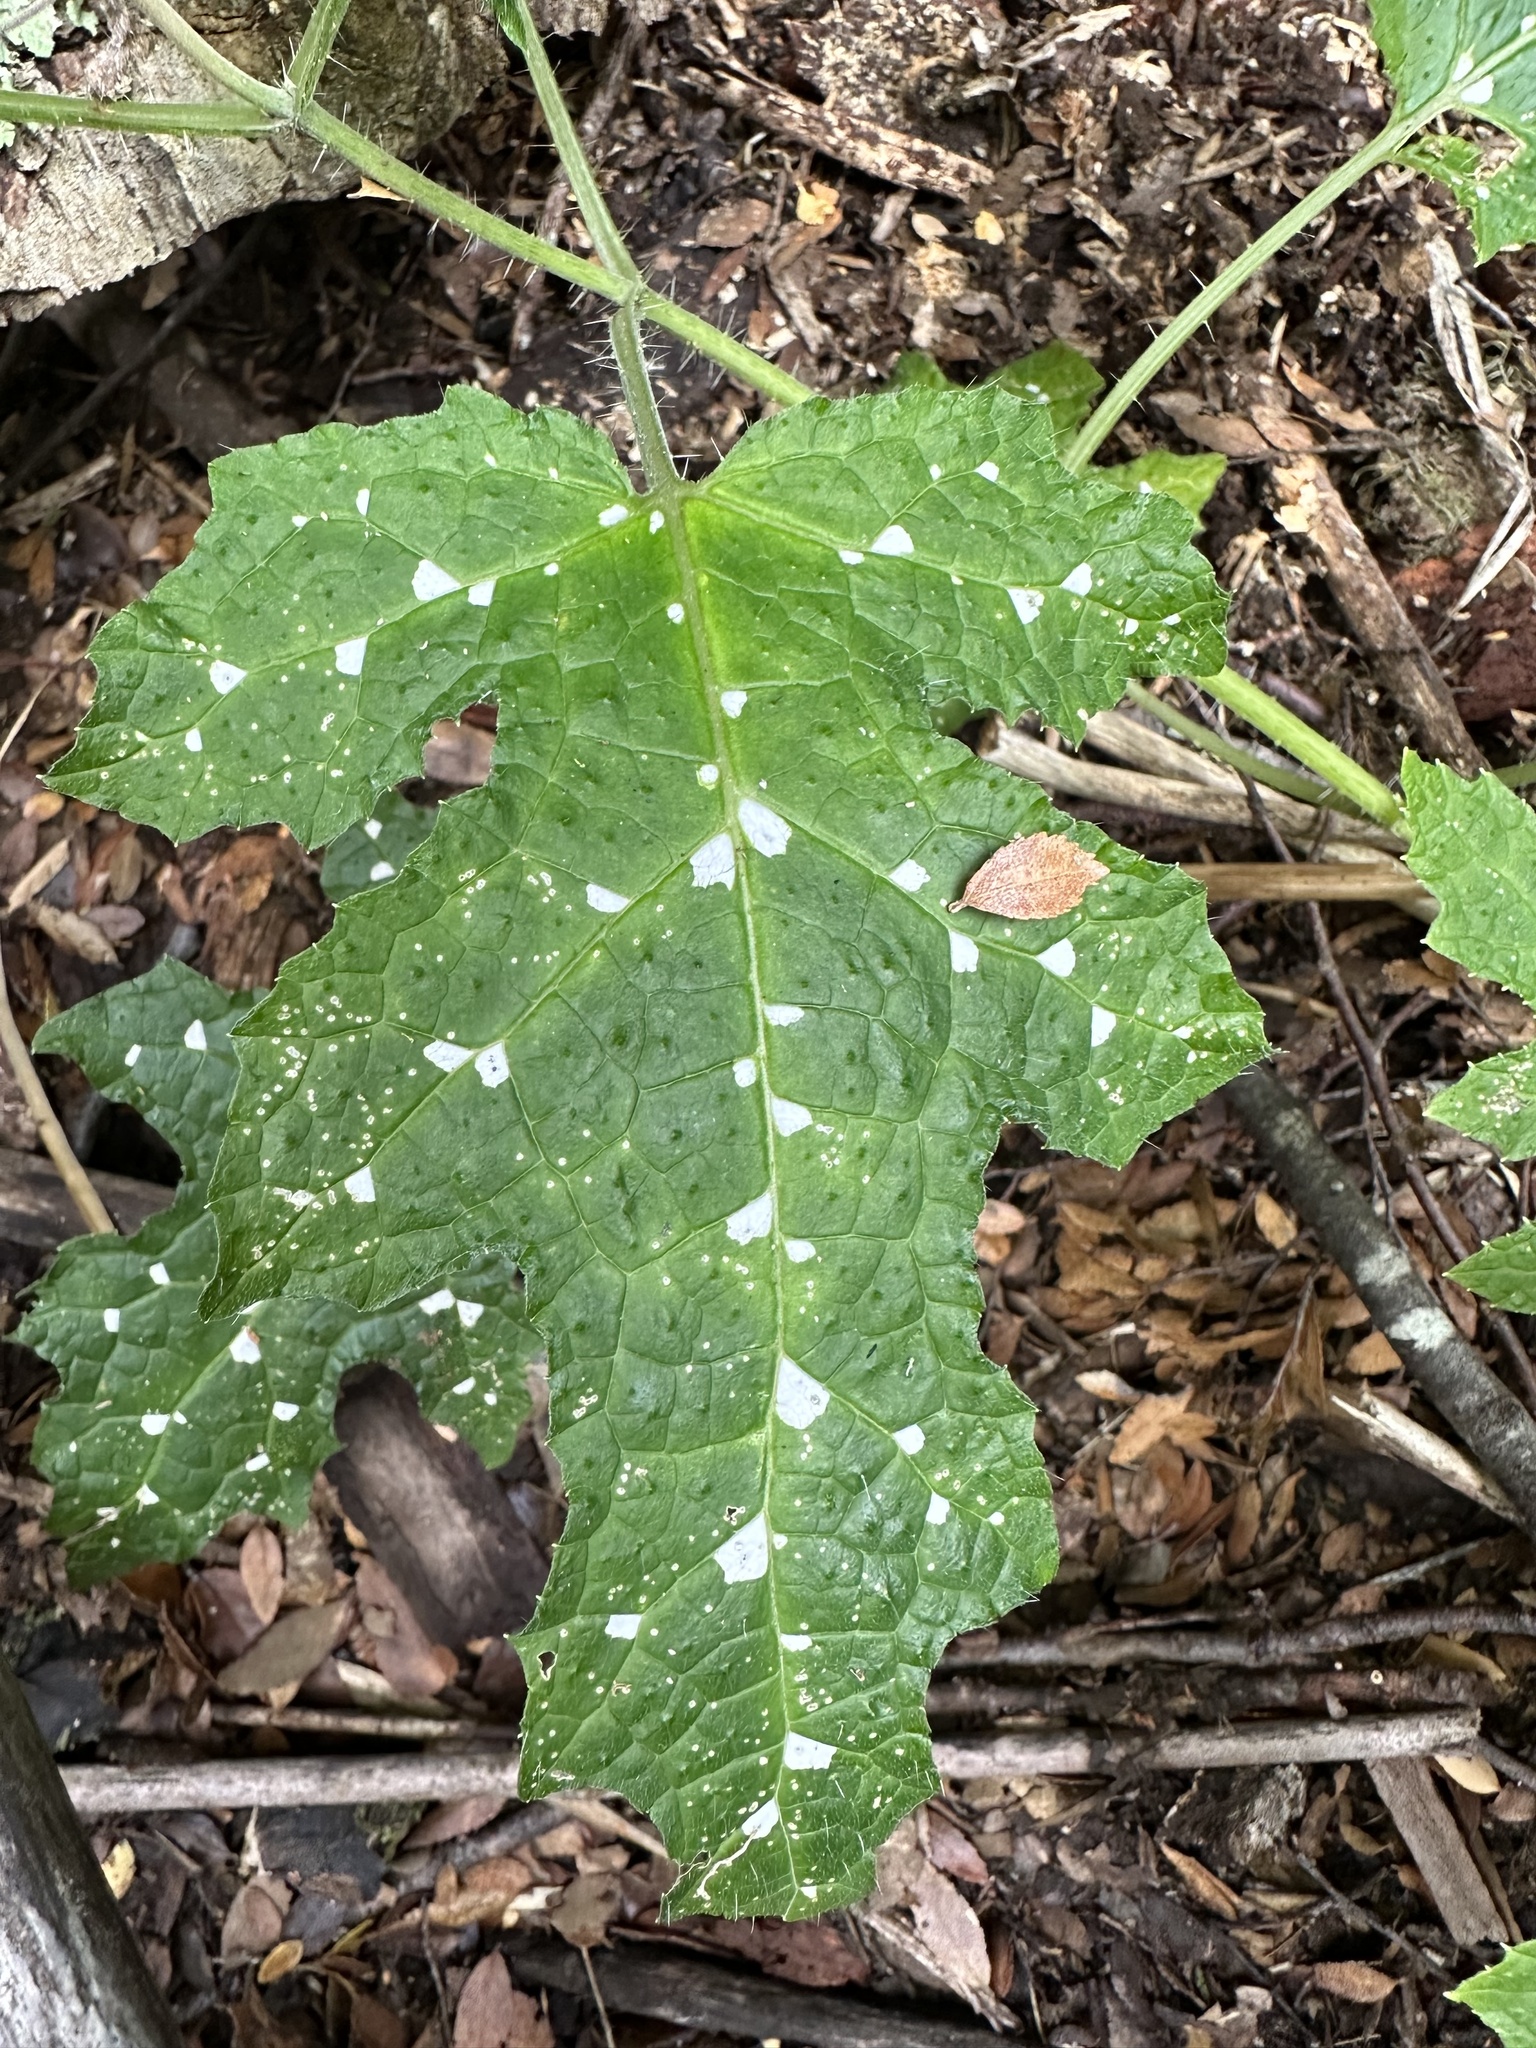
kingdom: Plantae
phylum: Tracheophyta
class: Magnoliopsida
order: Cornales
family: Loasaceae
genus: Loasa
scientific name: Loasa acanthifolia
